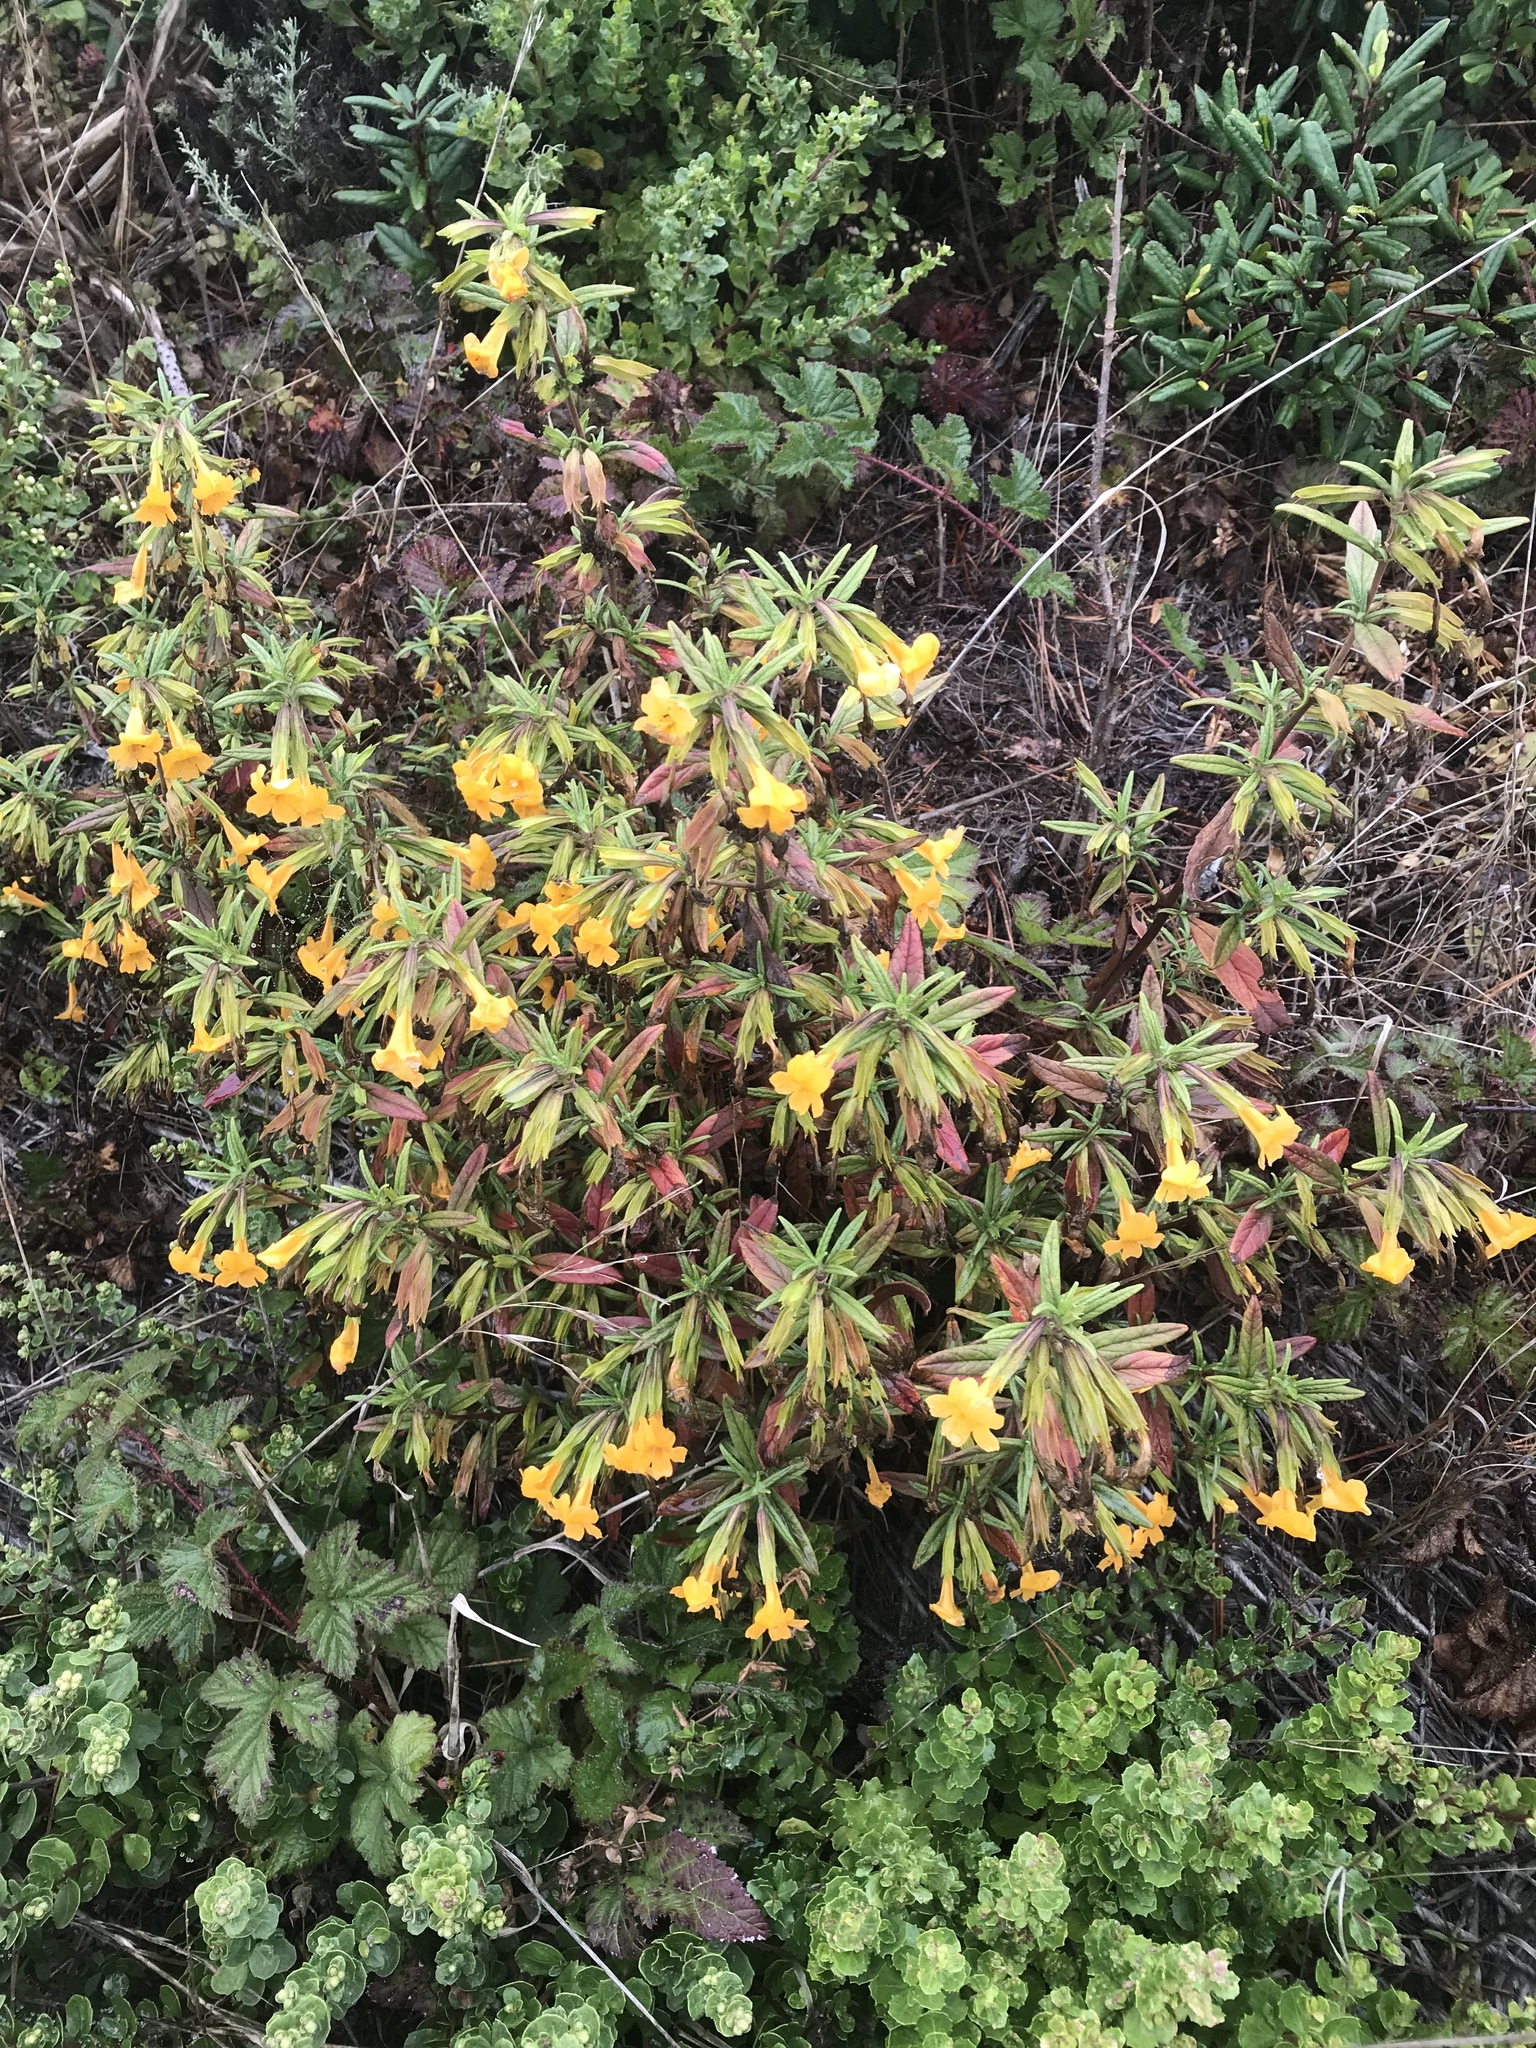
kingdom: Plantae
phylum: Tracheophyta
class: Magnoliopsida
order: Lamiales
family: Phrymaceae
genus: Diplacus
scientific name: Diplacus aurantiacus
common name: Bush monkey-flower
